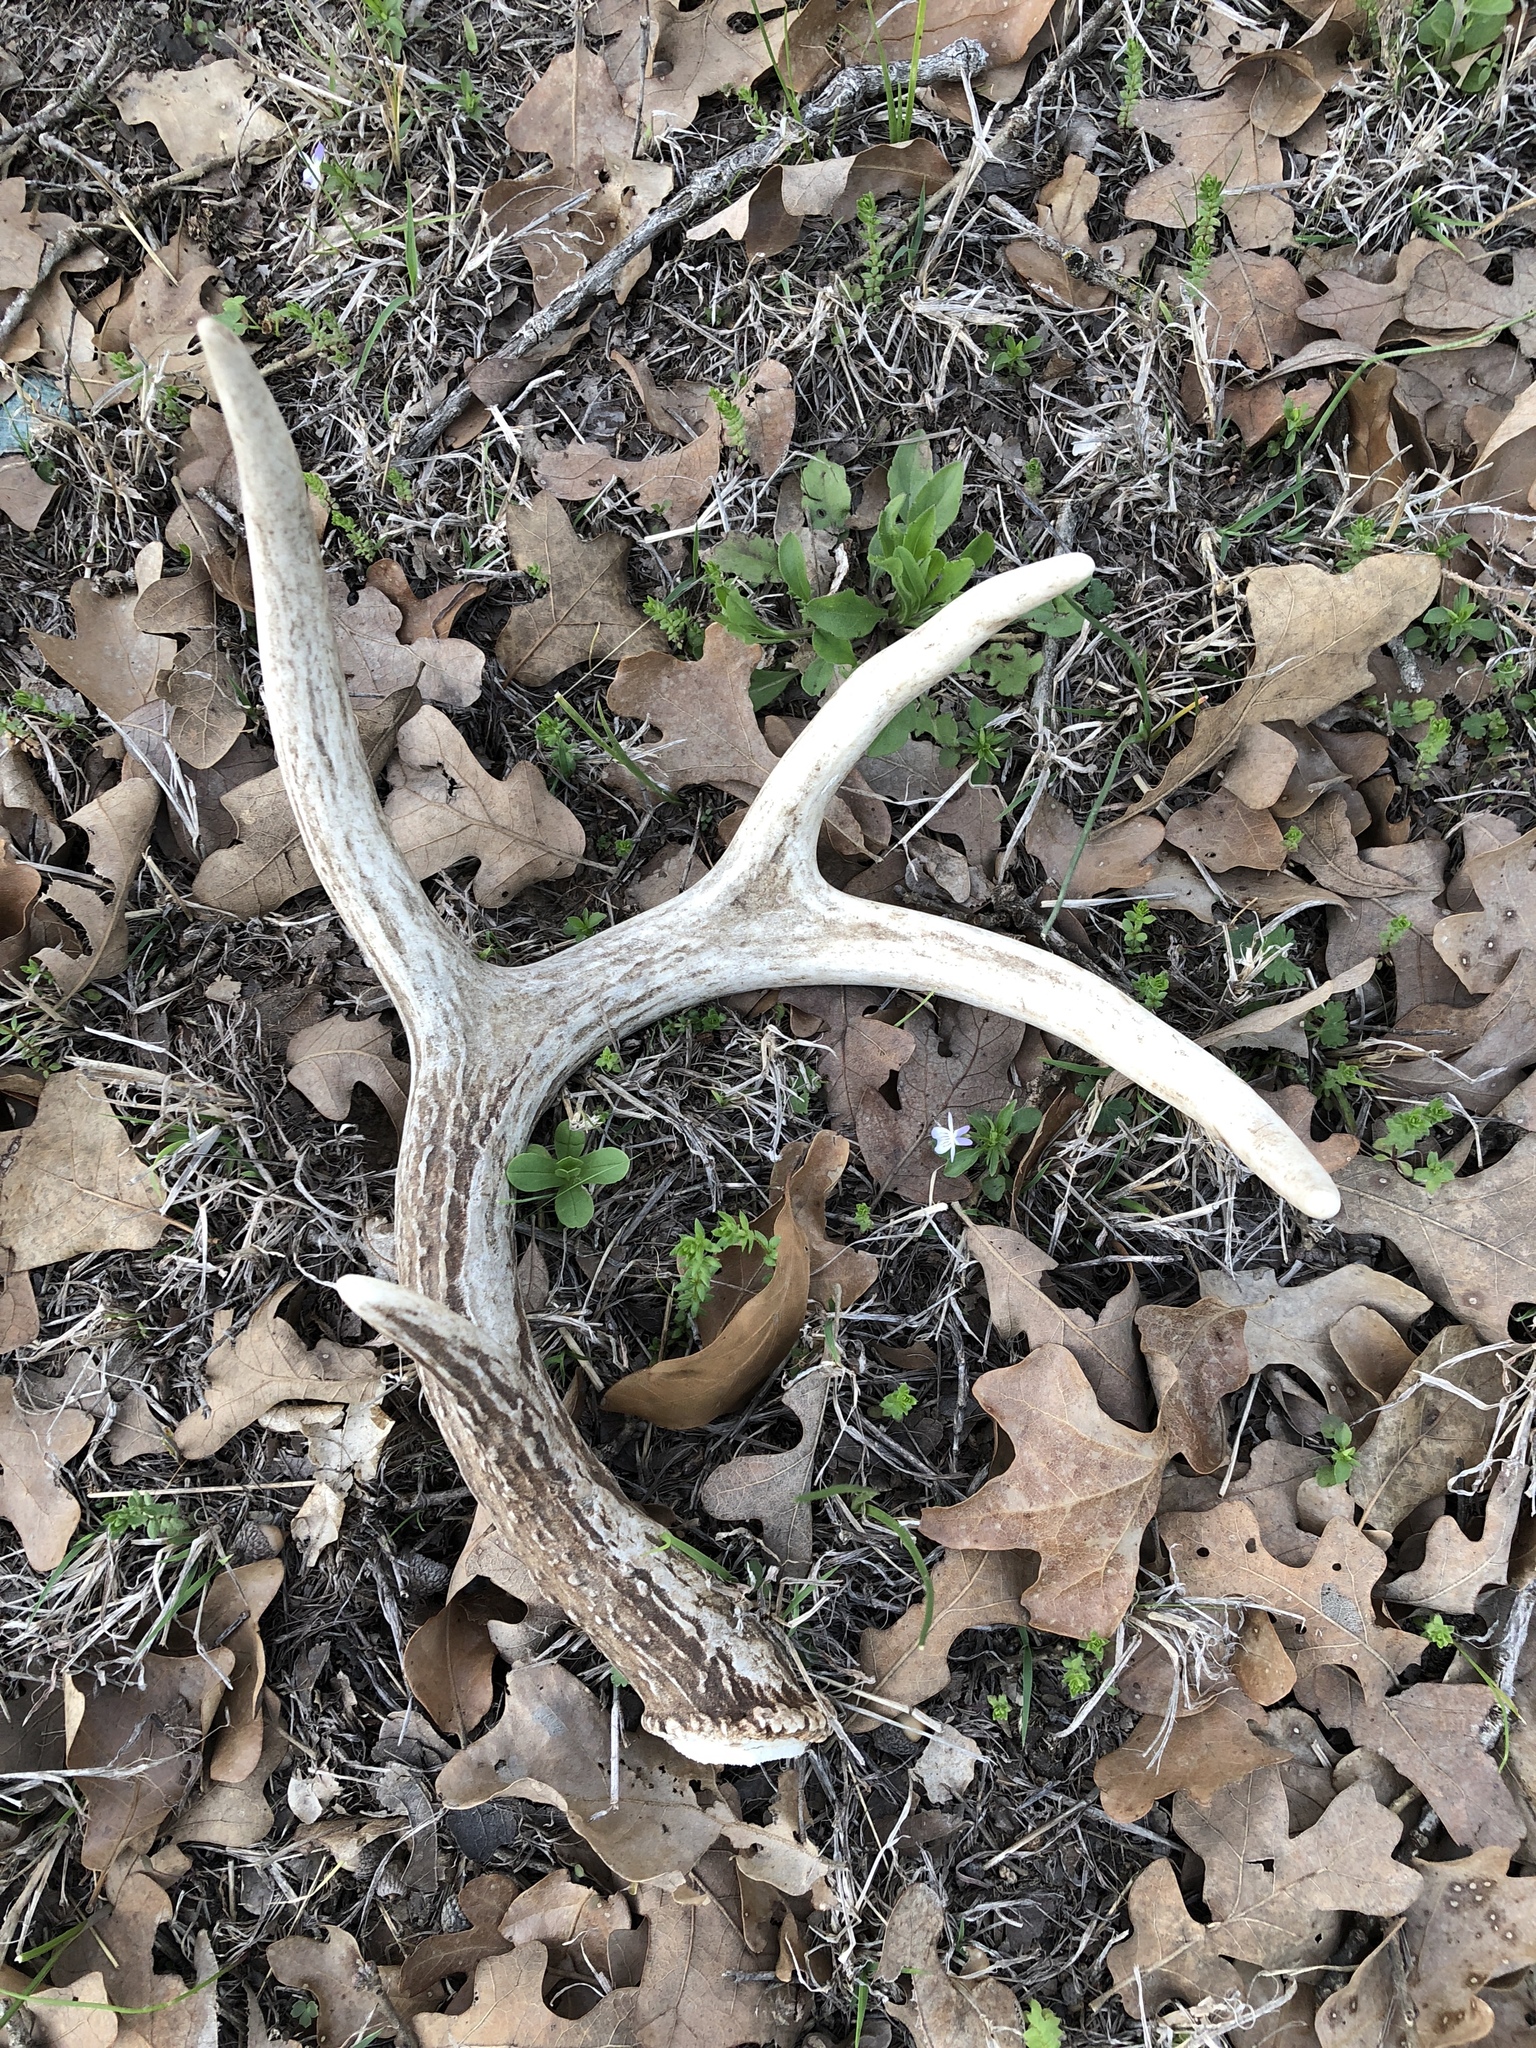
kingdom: Animalia
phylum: Chordata
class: Mammalia
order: Artiodactyla
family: Cervidae
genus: Odocoileus
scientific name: Odocoileus virginianus
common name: White-tailed deer
